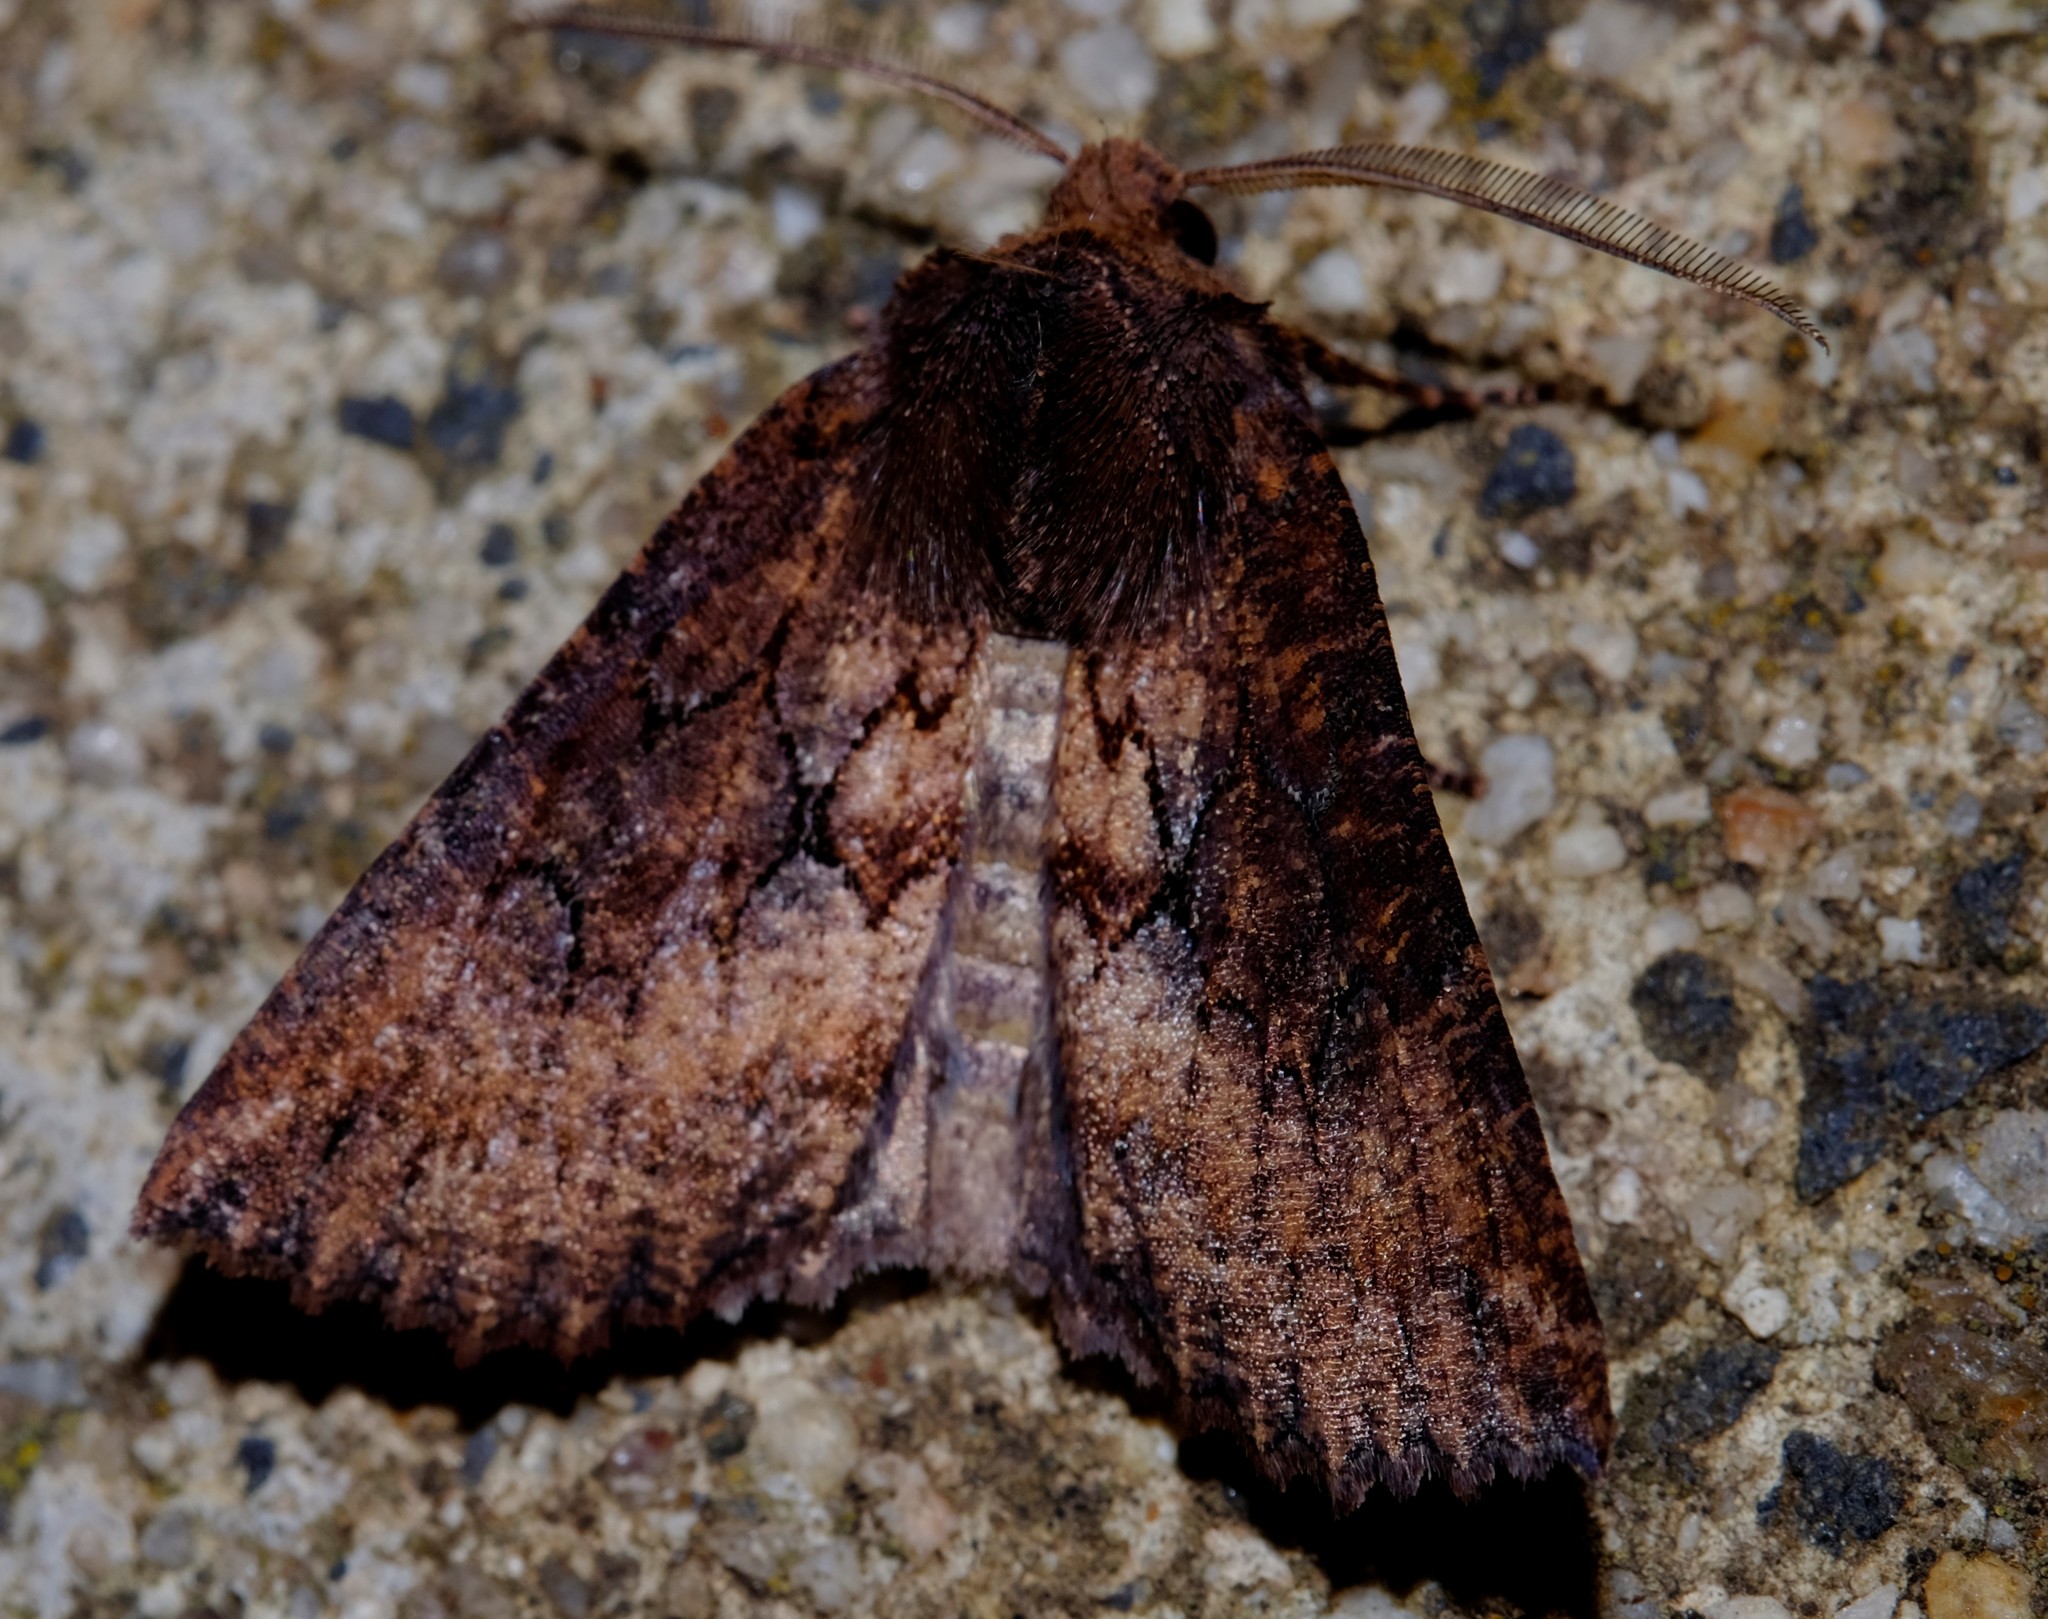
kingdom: Animalia
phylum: Arthropoda
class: Insecta
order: Lepidoptera
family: Geometridae
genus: Nisista
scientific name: Nisista serrata
